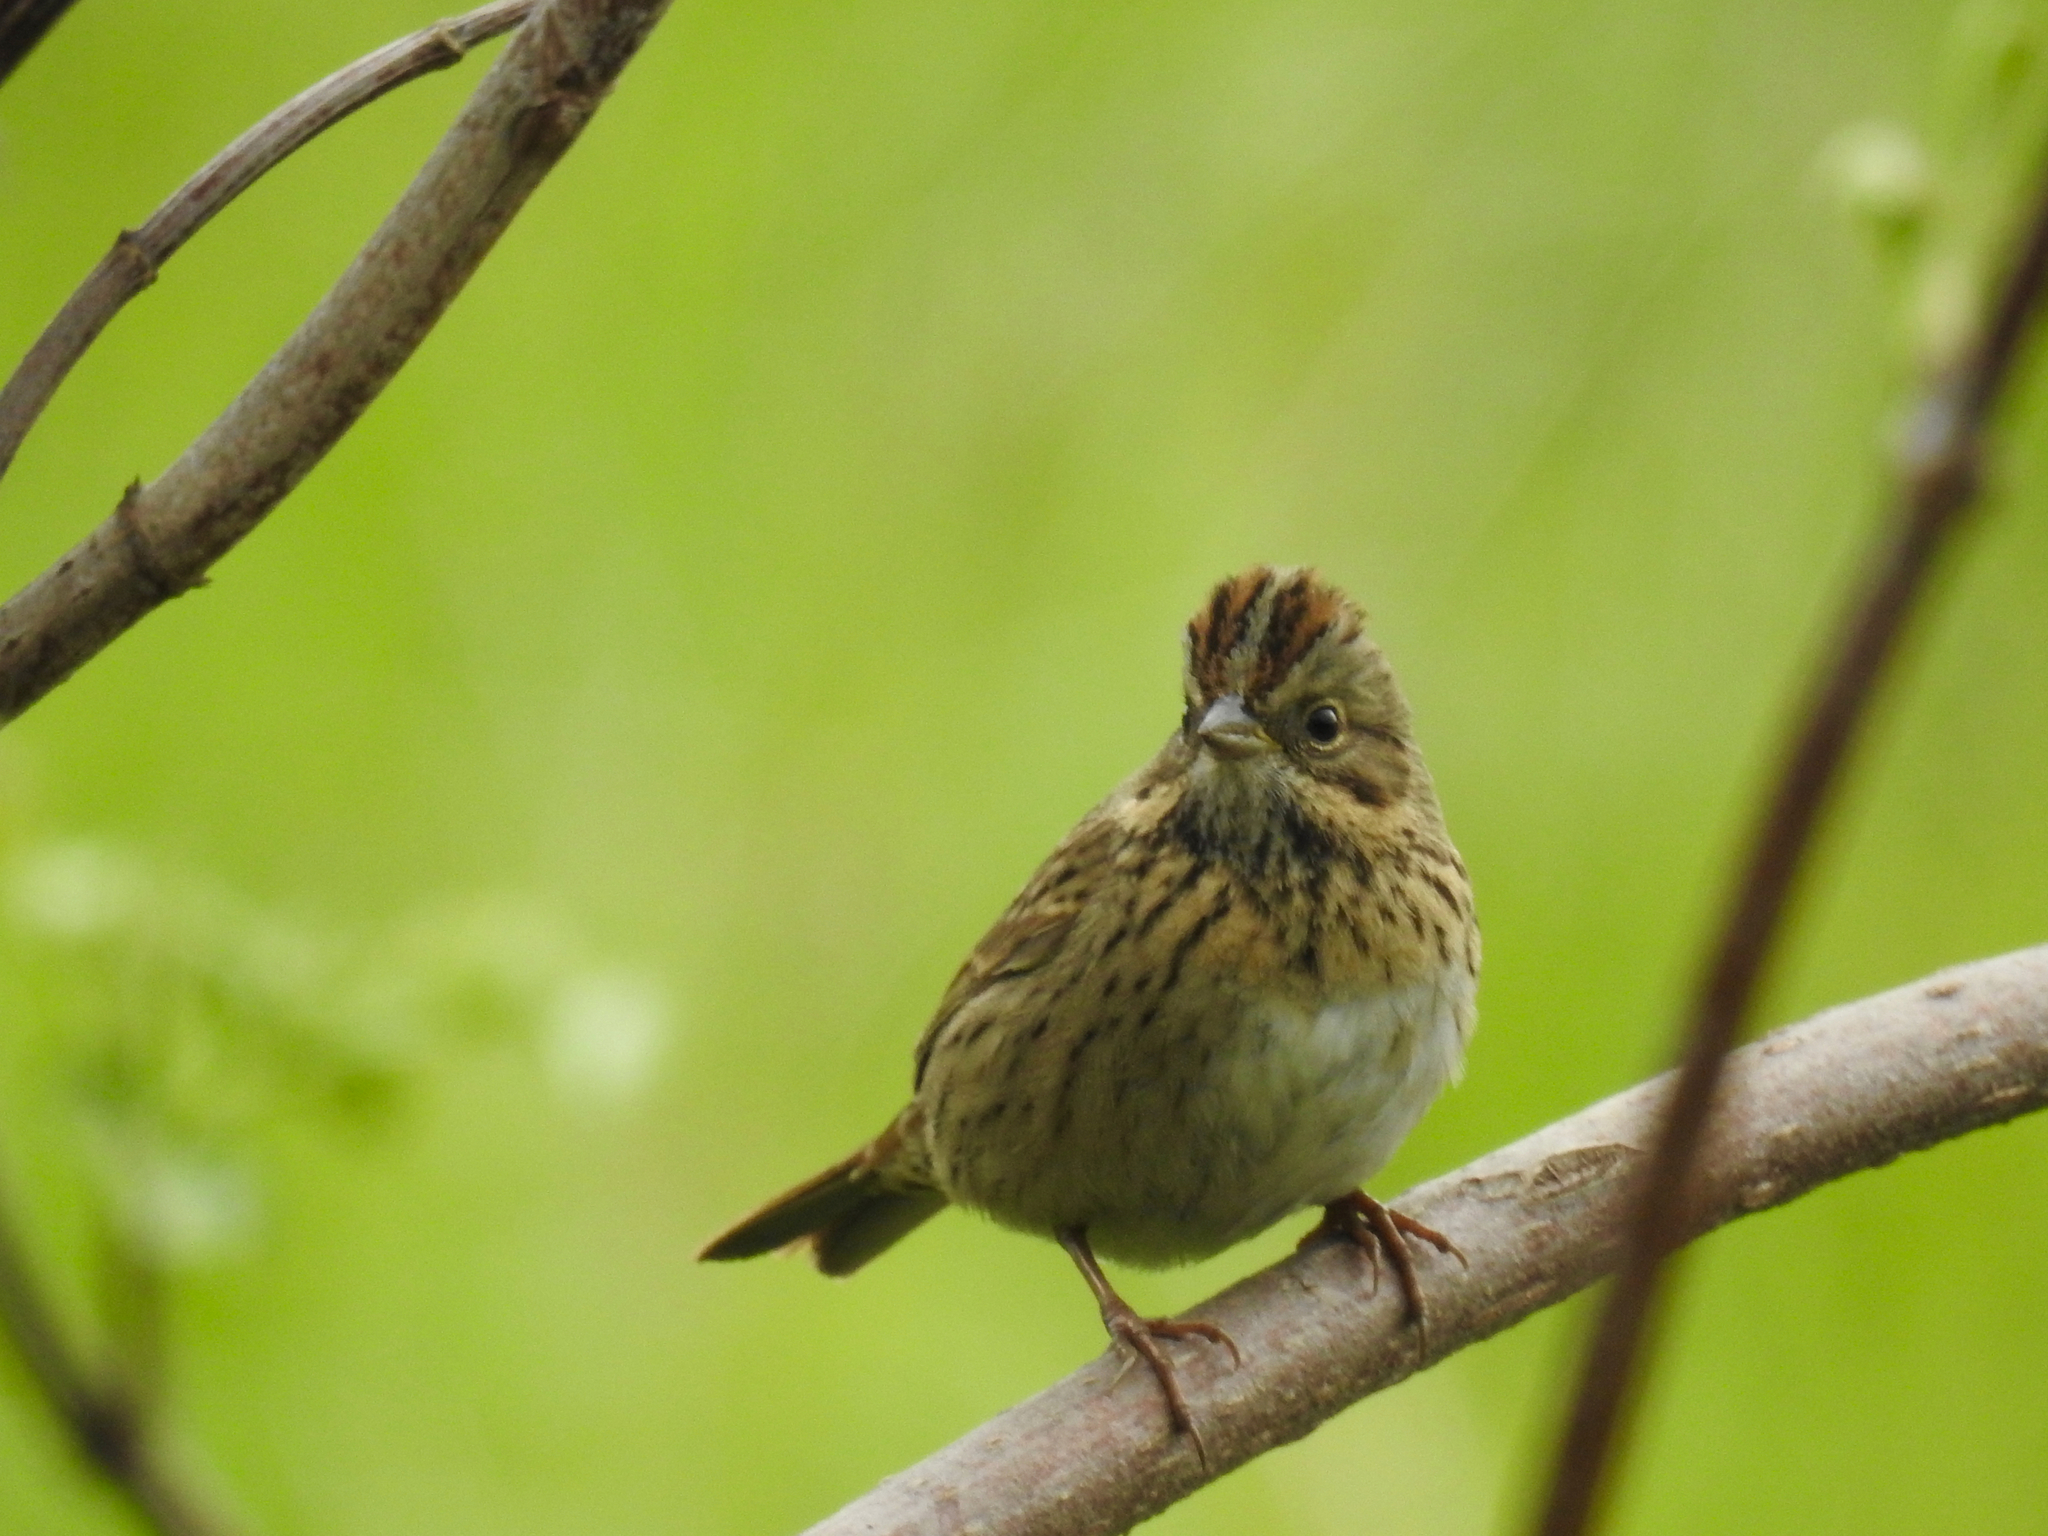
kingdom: Animalia
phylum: Chordata
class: Aves
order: Passeriformes
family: Passerellidae
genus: Melospiza
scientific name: Melospiza lincolnii
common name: Lincoln's sparrow
